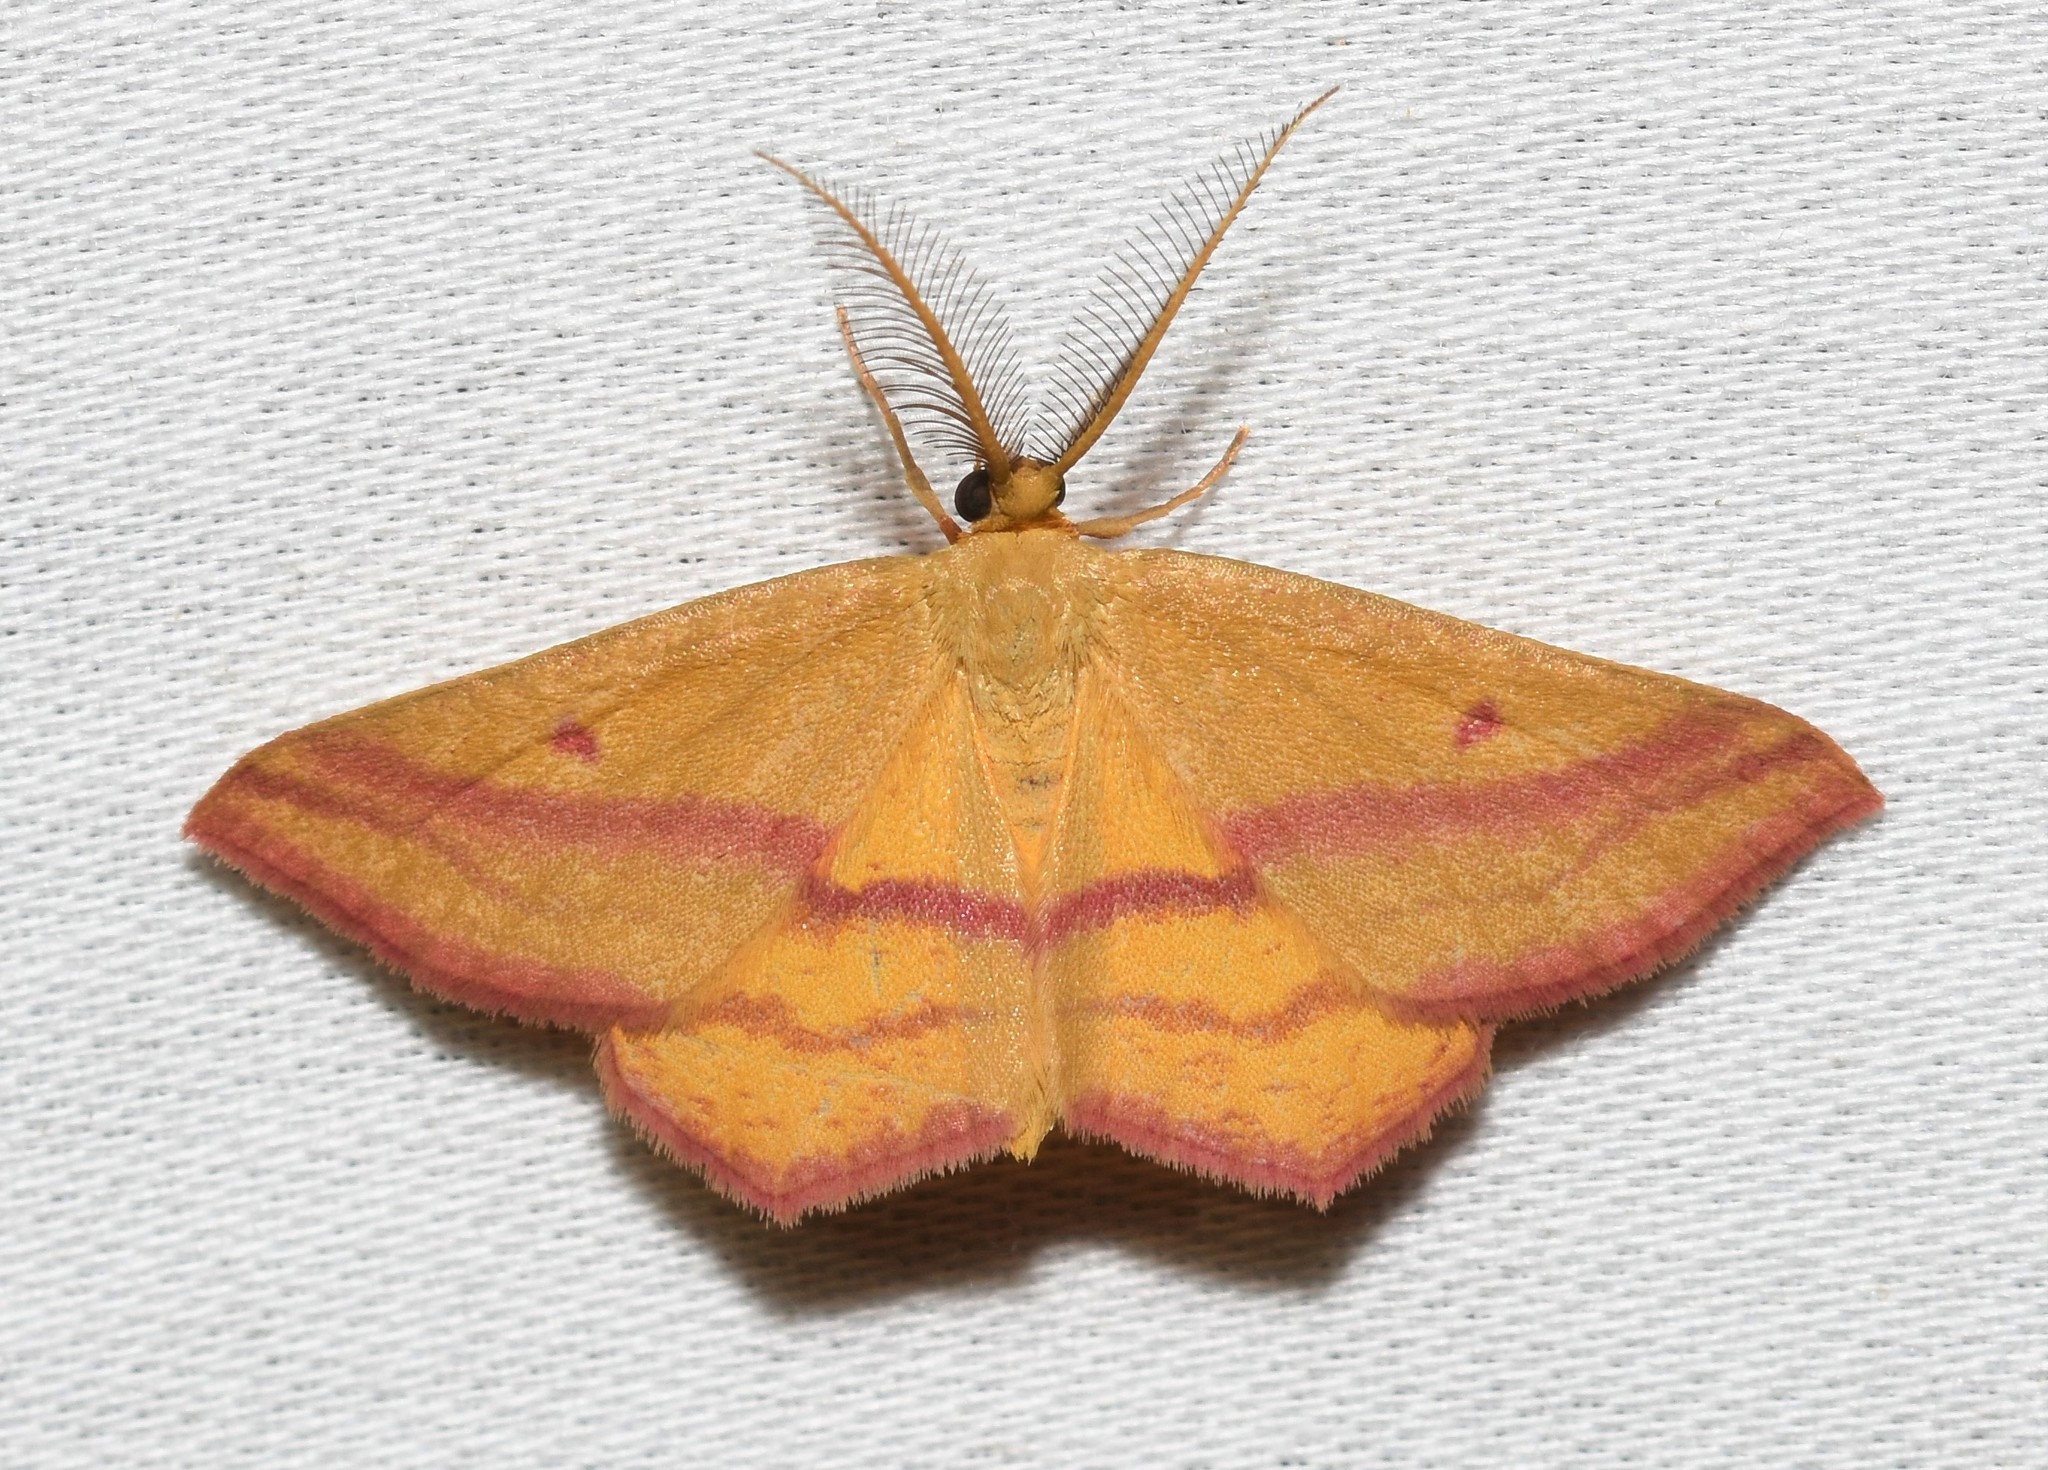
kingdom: Animalia
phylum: Arthropoda
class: Insecta
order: Lepidoptera
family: Geometridae
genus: Haematopis
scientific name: Haematopis grataria
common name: Chickweed geometer
